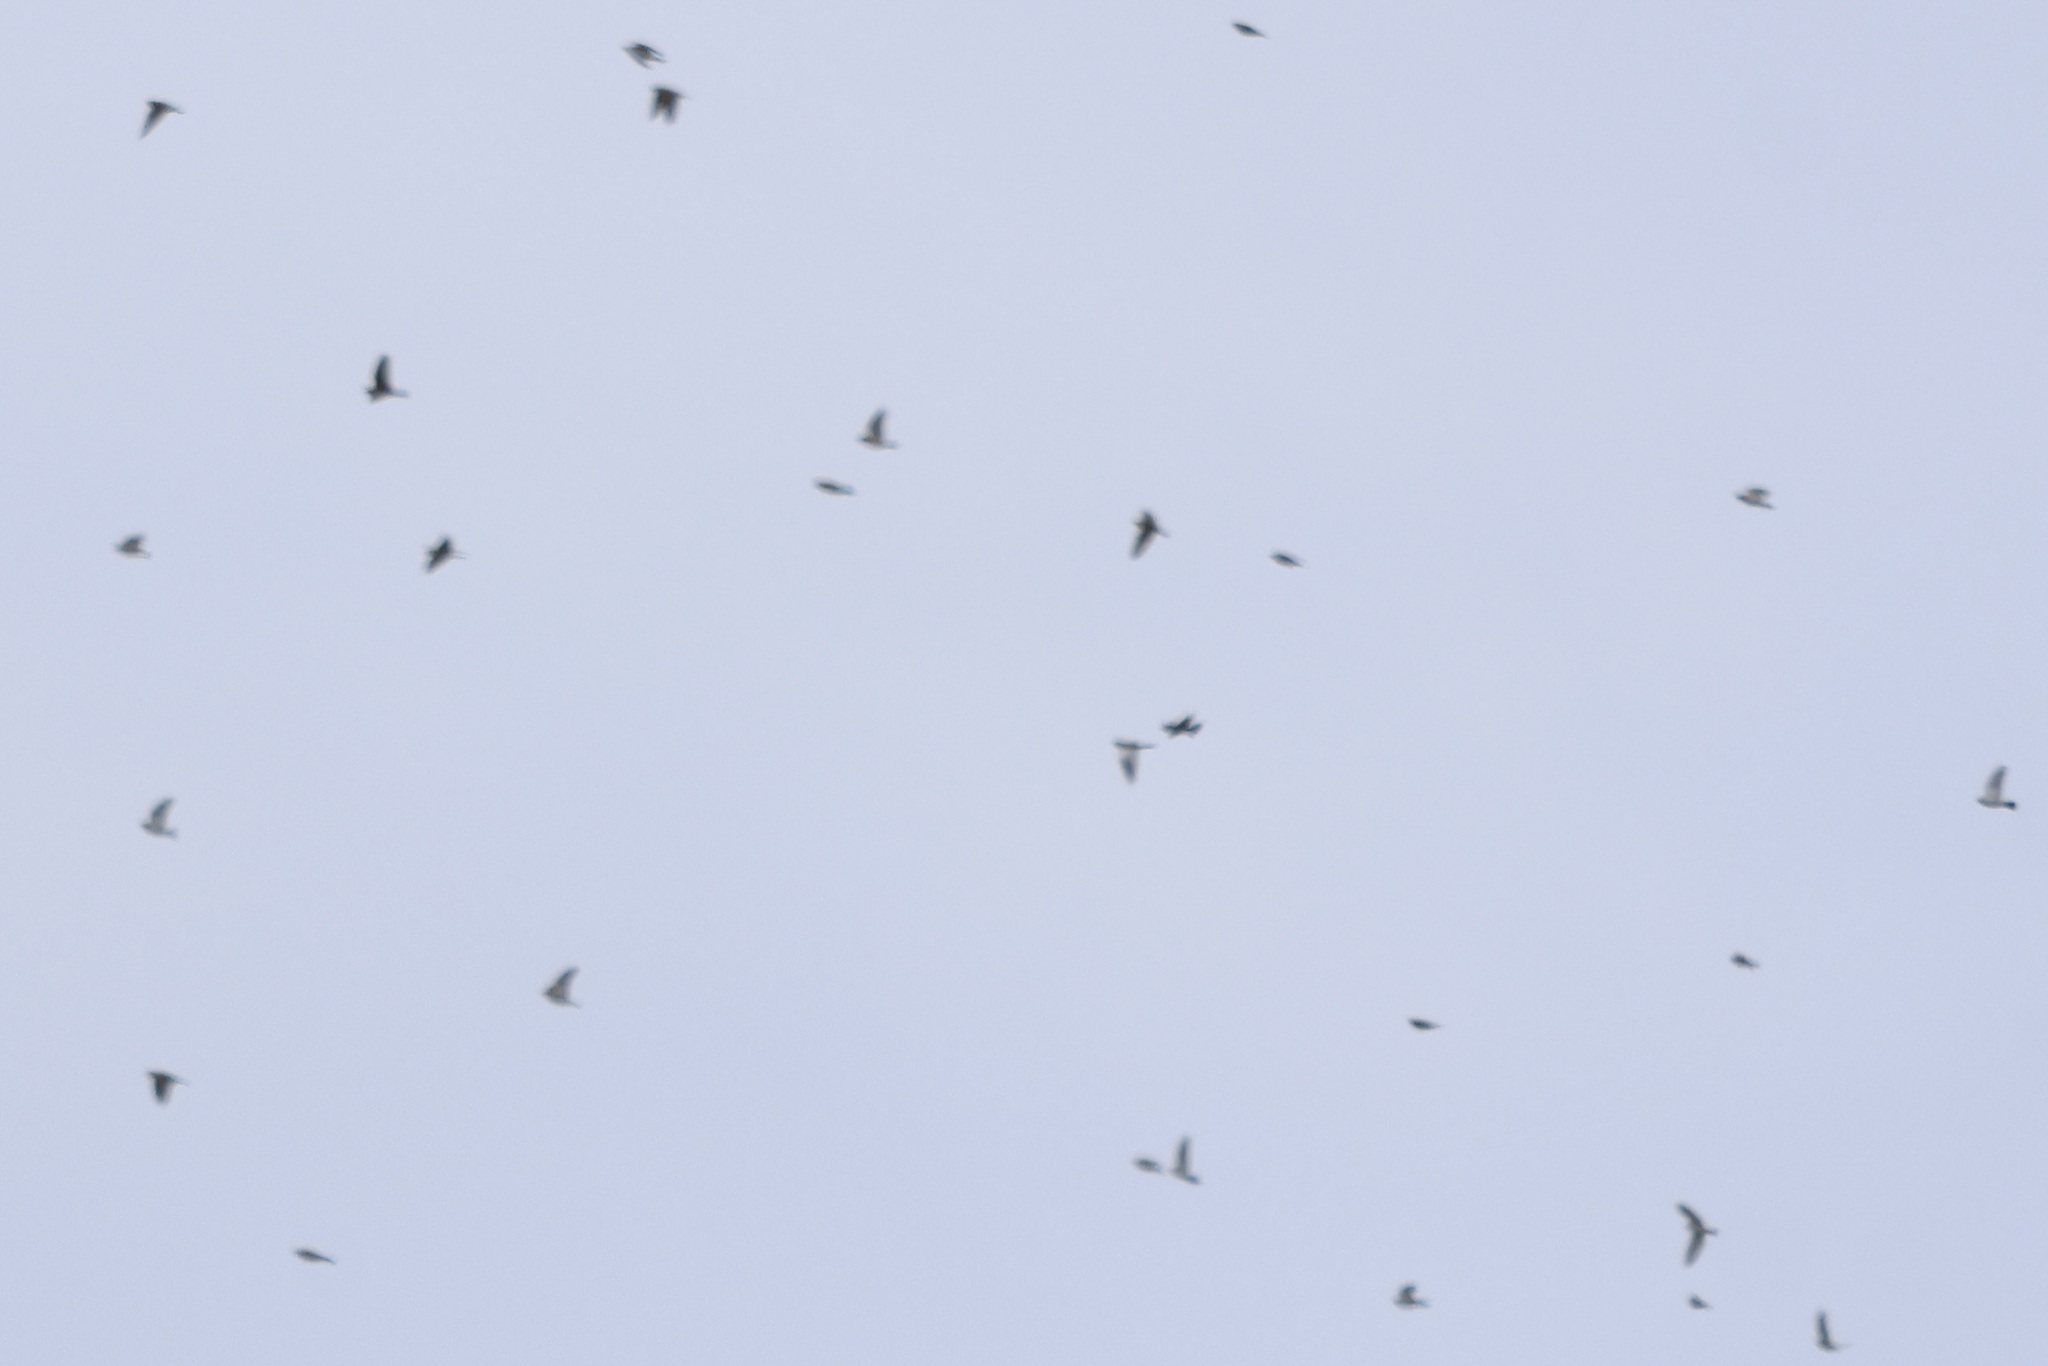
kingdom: Animalia
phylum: Chordata
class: Aves
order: Passeriformes
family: Calcariidae
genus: Plectrophenax
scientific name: Plectrophenax nivalis
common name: Snow bunting
